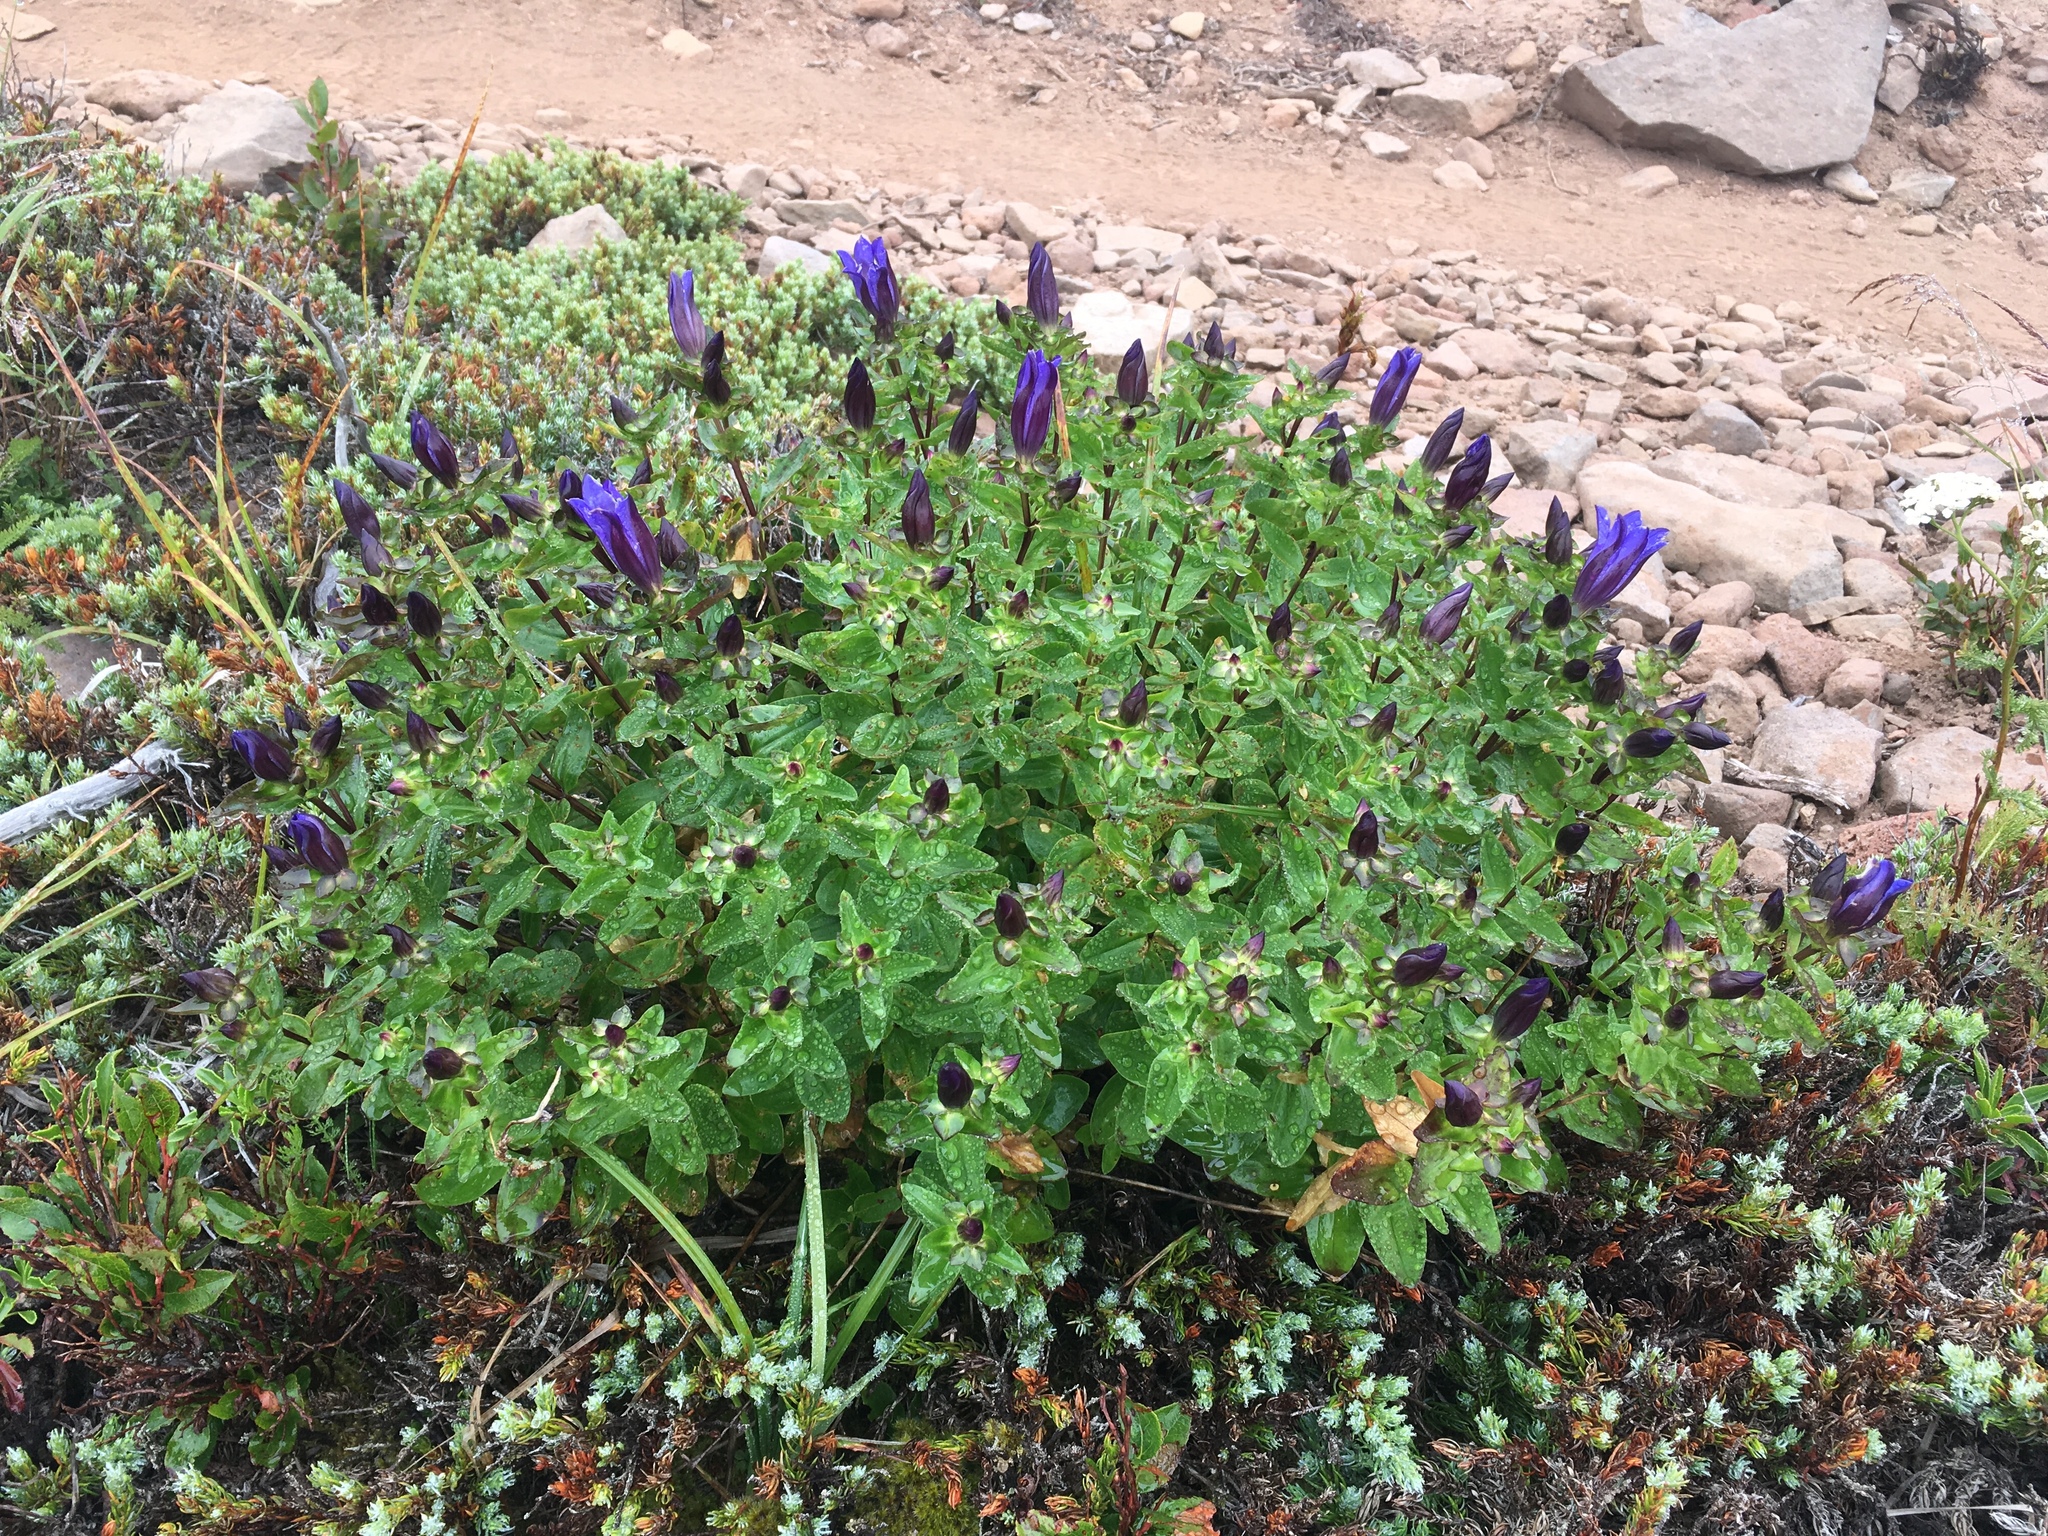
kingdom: Plantae
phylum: Tracheophyta
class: Magnoliopsida
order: Gentianales
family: Gentianaceae
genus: Gentiana
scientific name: Gentiana calycosa
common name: Rainier pleated gentian
